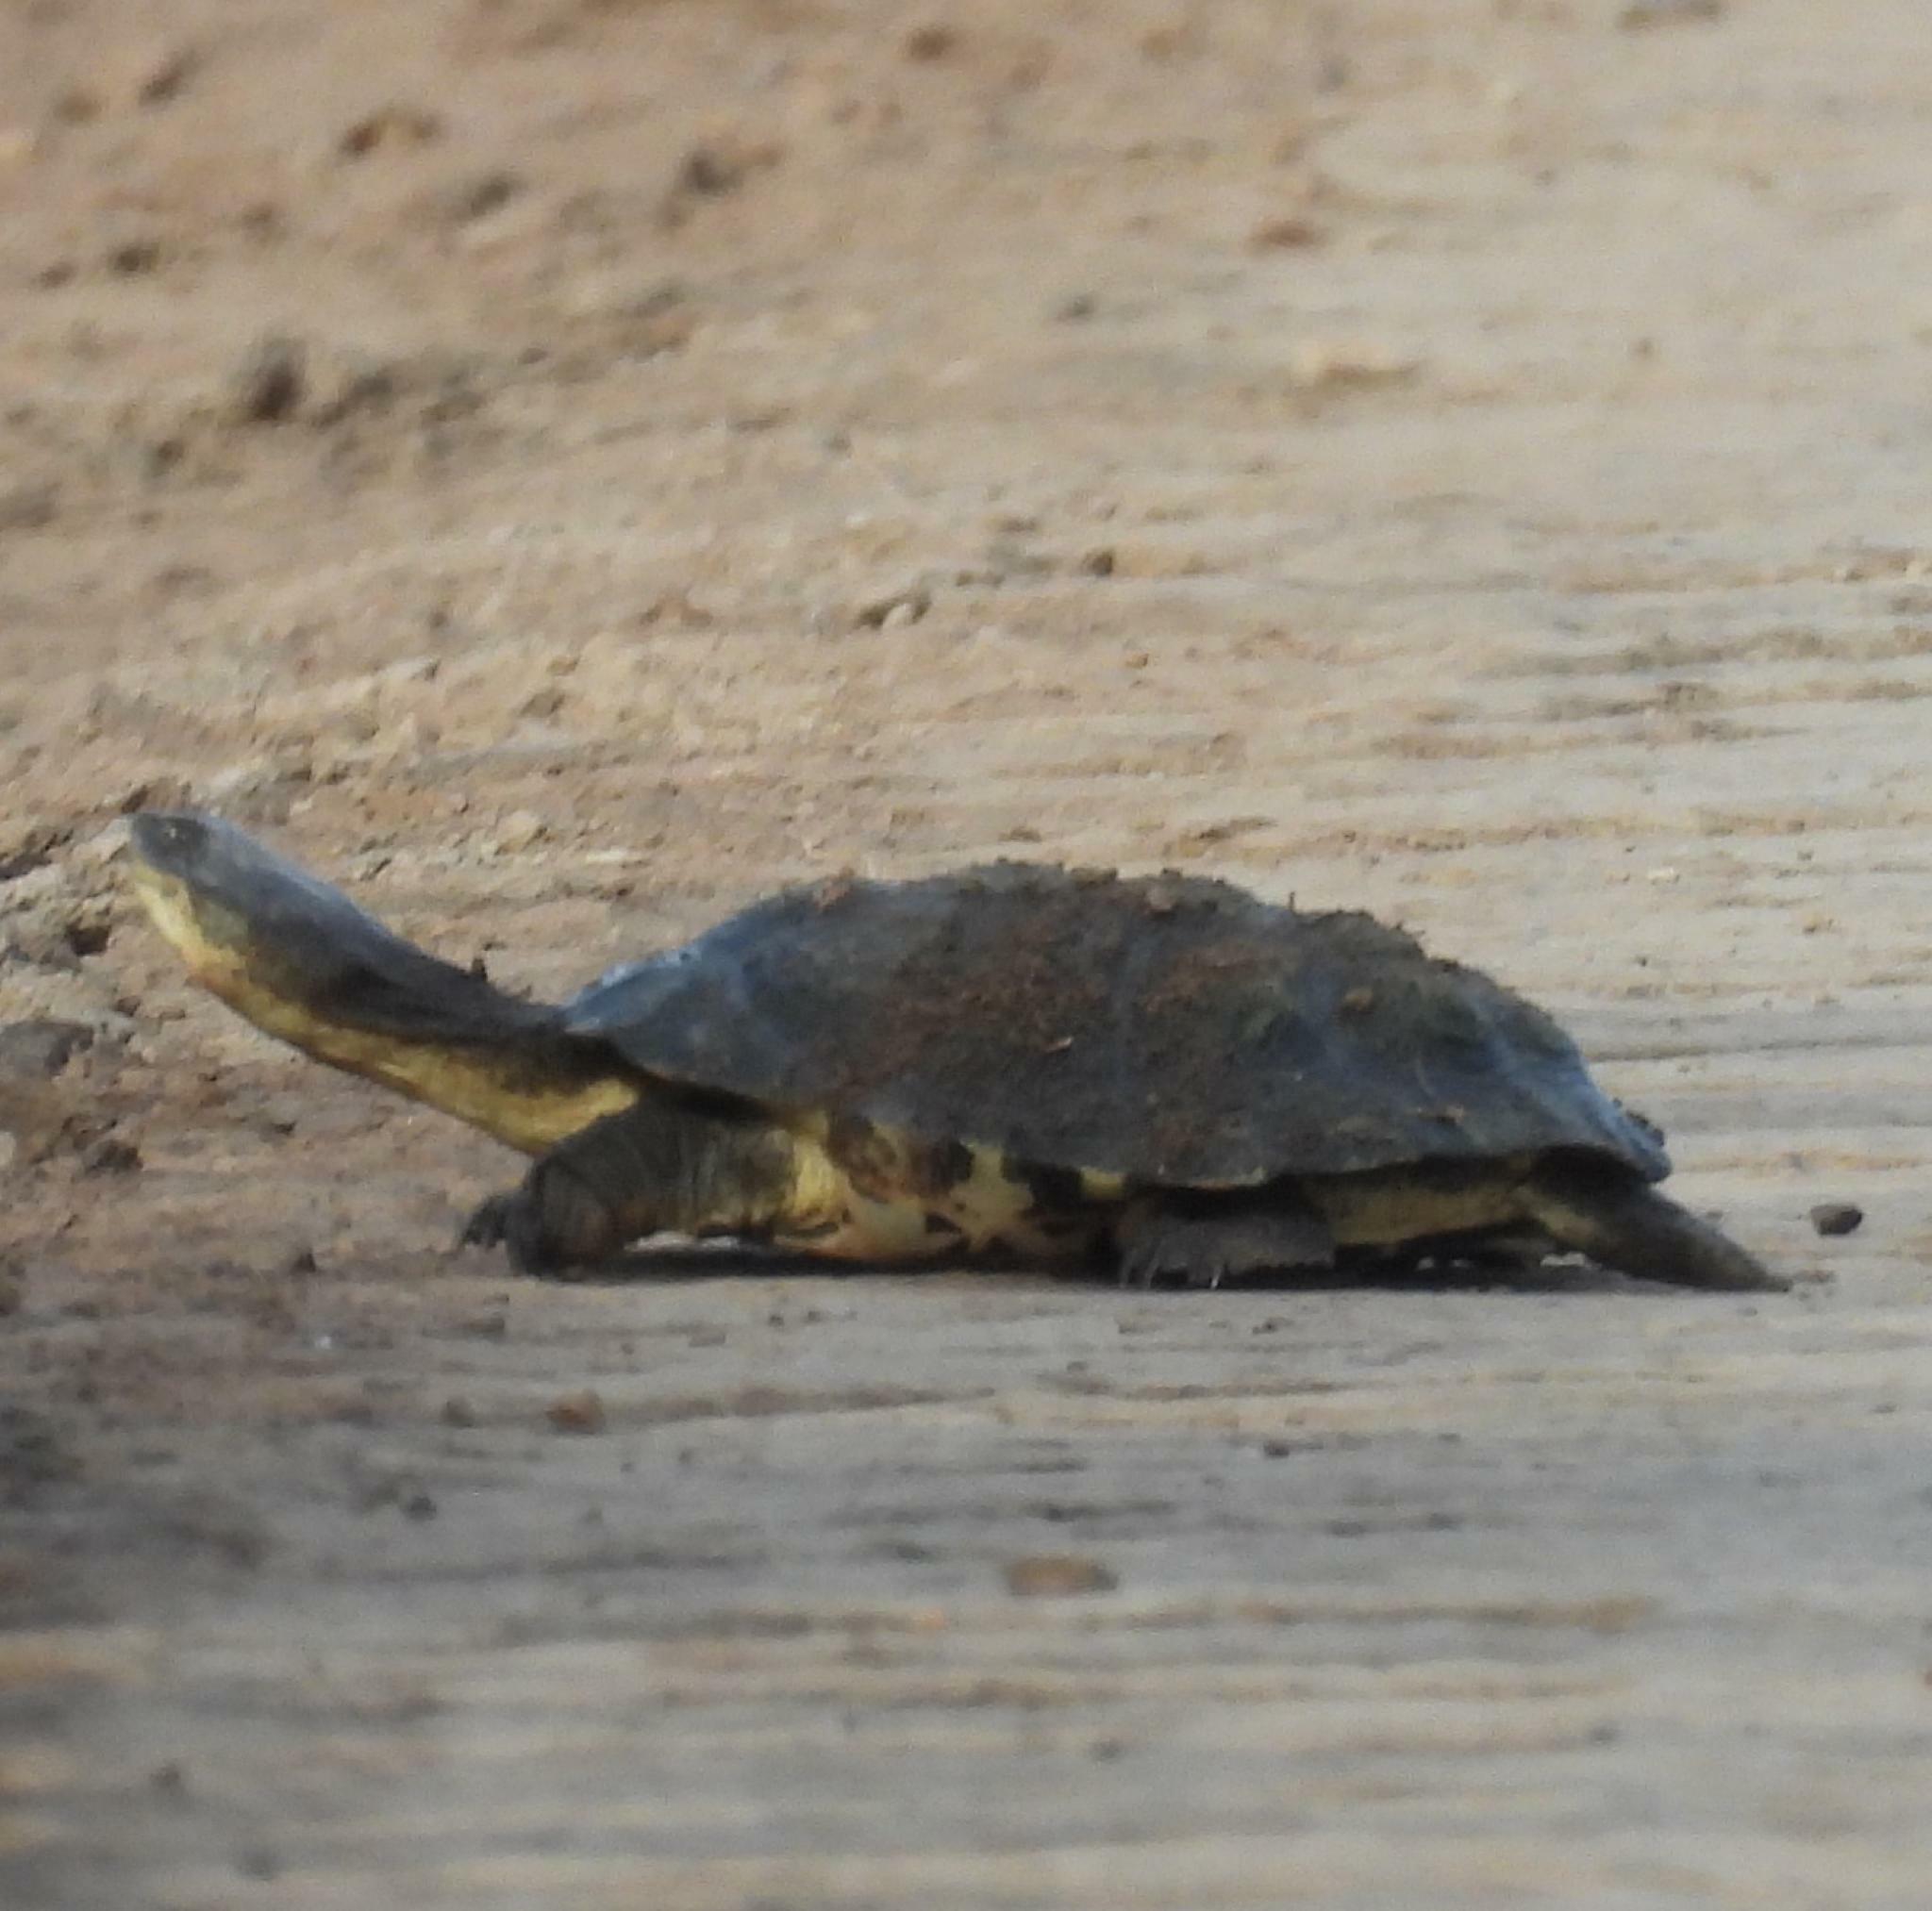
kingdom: Animalia
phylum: Chordata
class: Testudines
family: Pelomedusidae
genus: Pelomedusa
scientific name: Pelomedusa galeata
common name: South african helmeted terrapin
